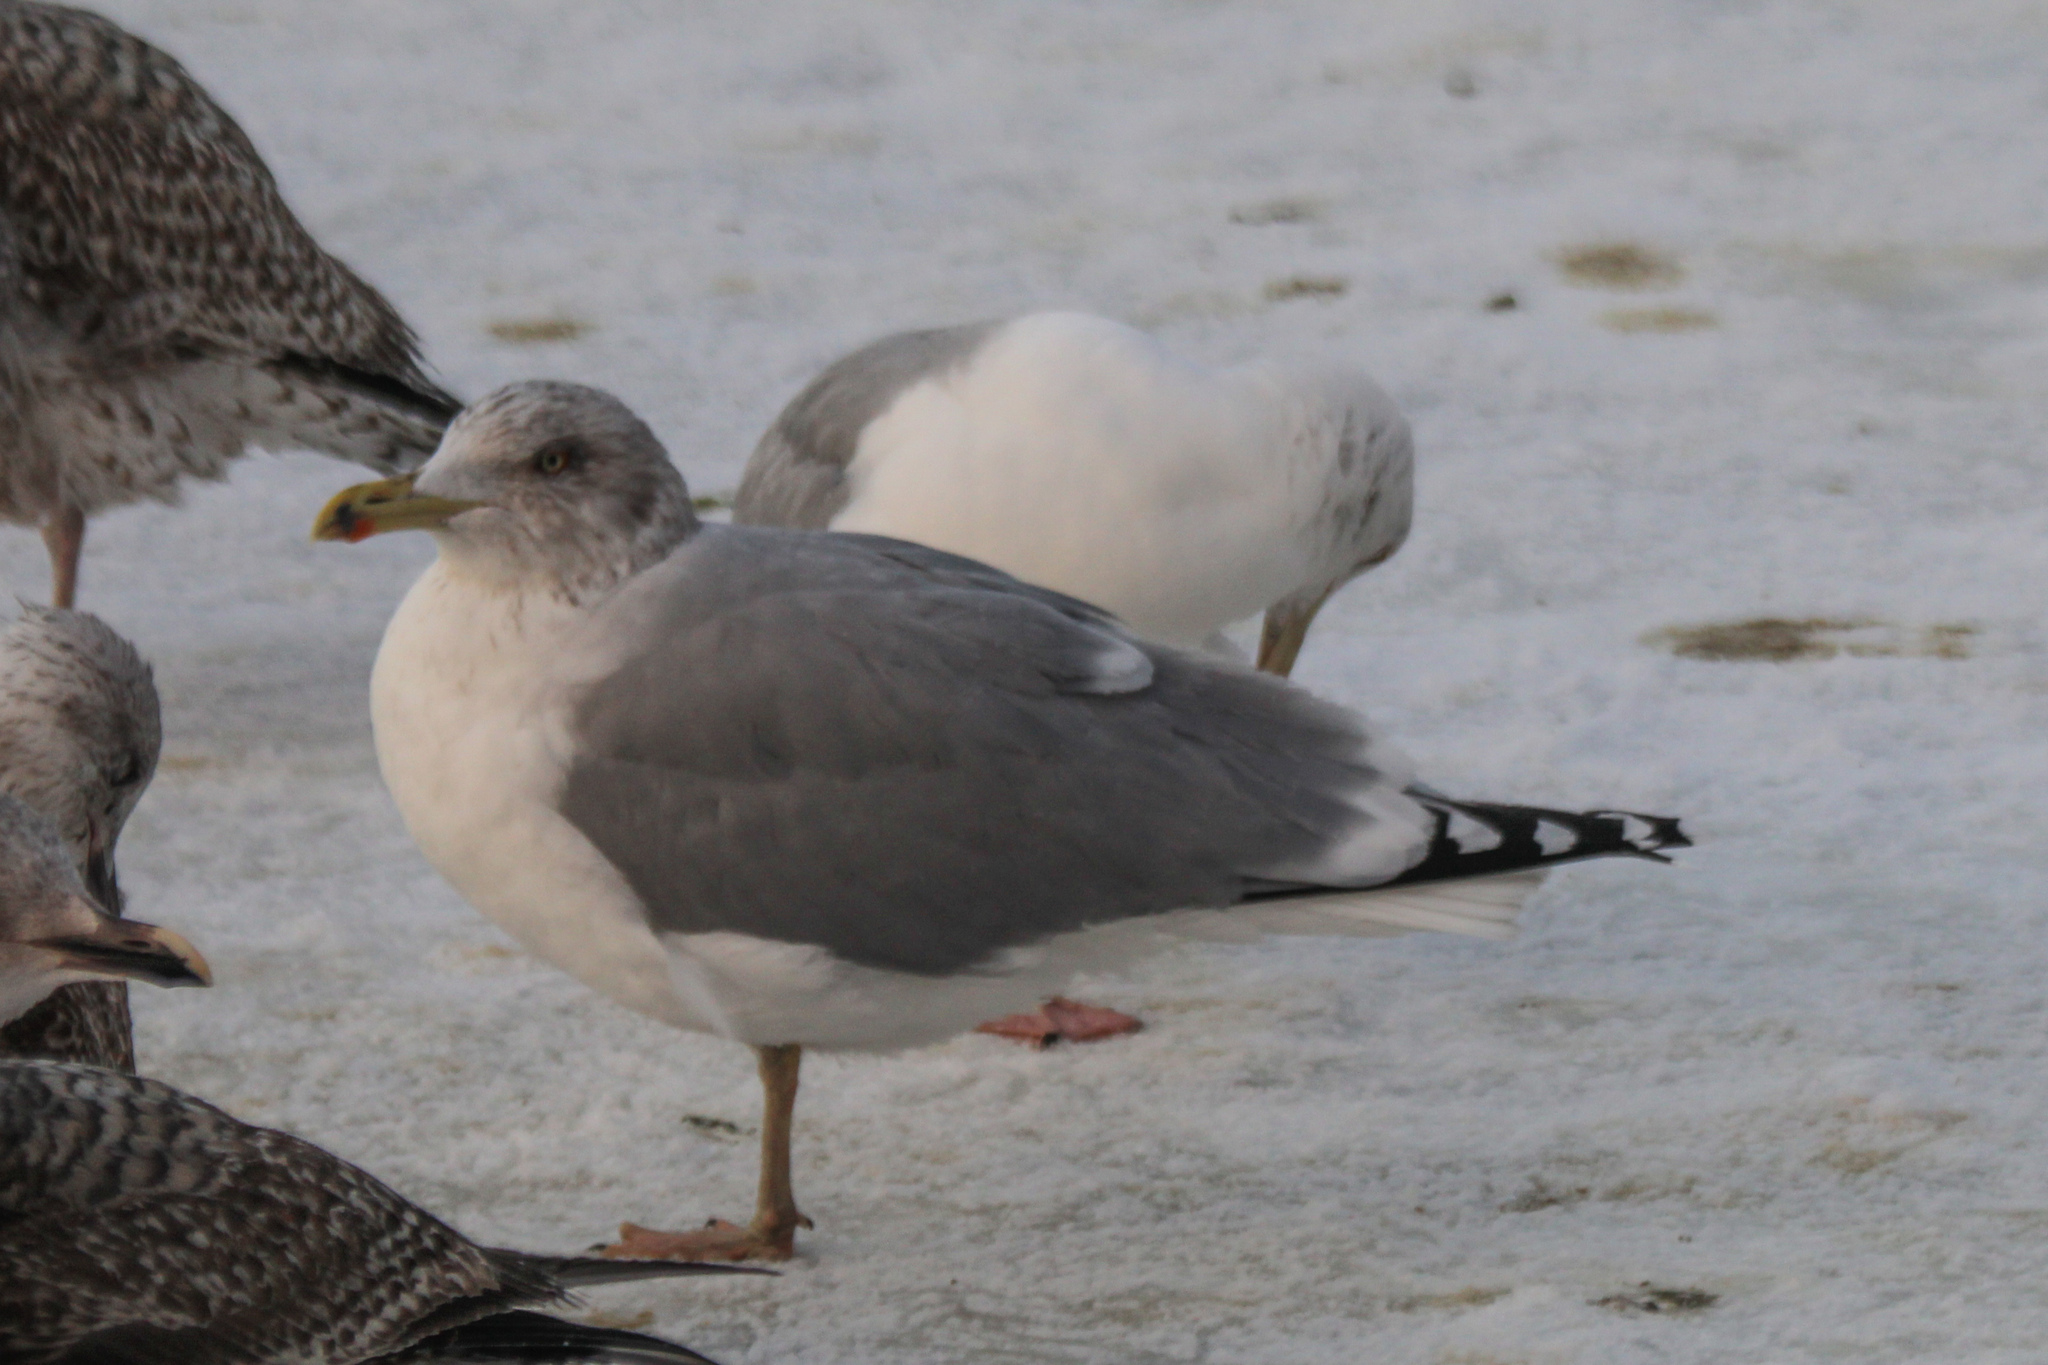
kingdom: Animalia
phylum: Chordata
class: Aves
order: Charadriiformes
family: Laridae
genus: Larus
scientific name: Larus argentatus
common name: Herring gull
